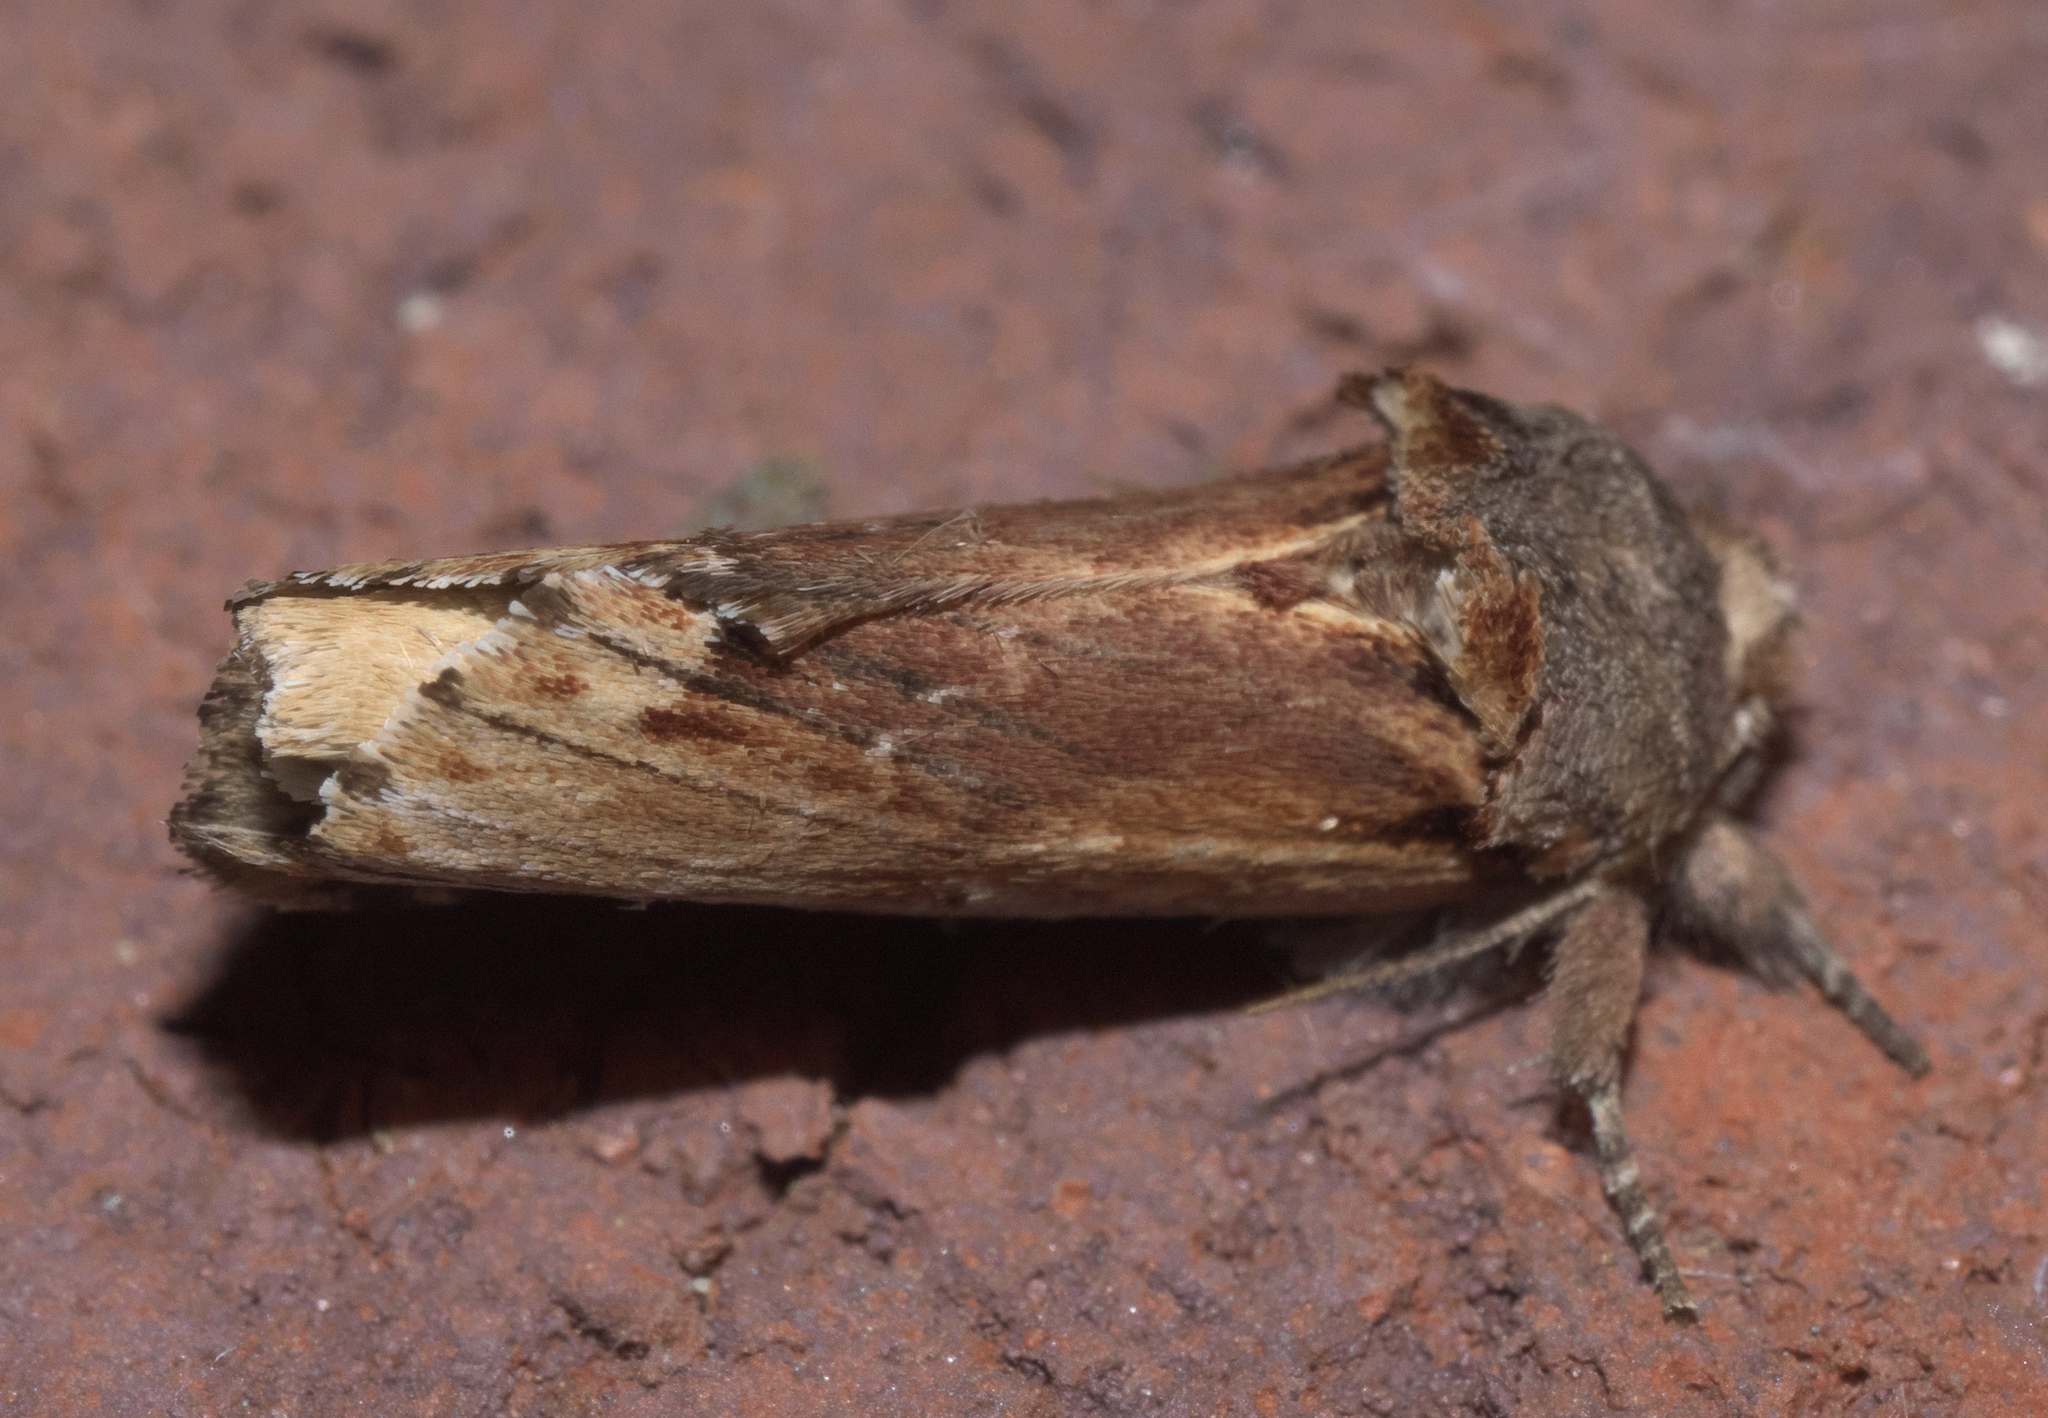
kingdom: Animalia
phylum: Arthropoda
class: Insecta
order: Lepidoptera
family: Notodontidae
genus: Schizura
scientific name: Schizura
